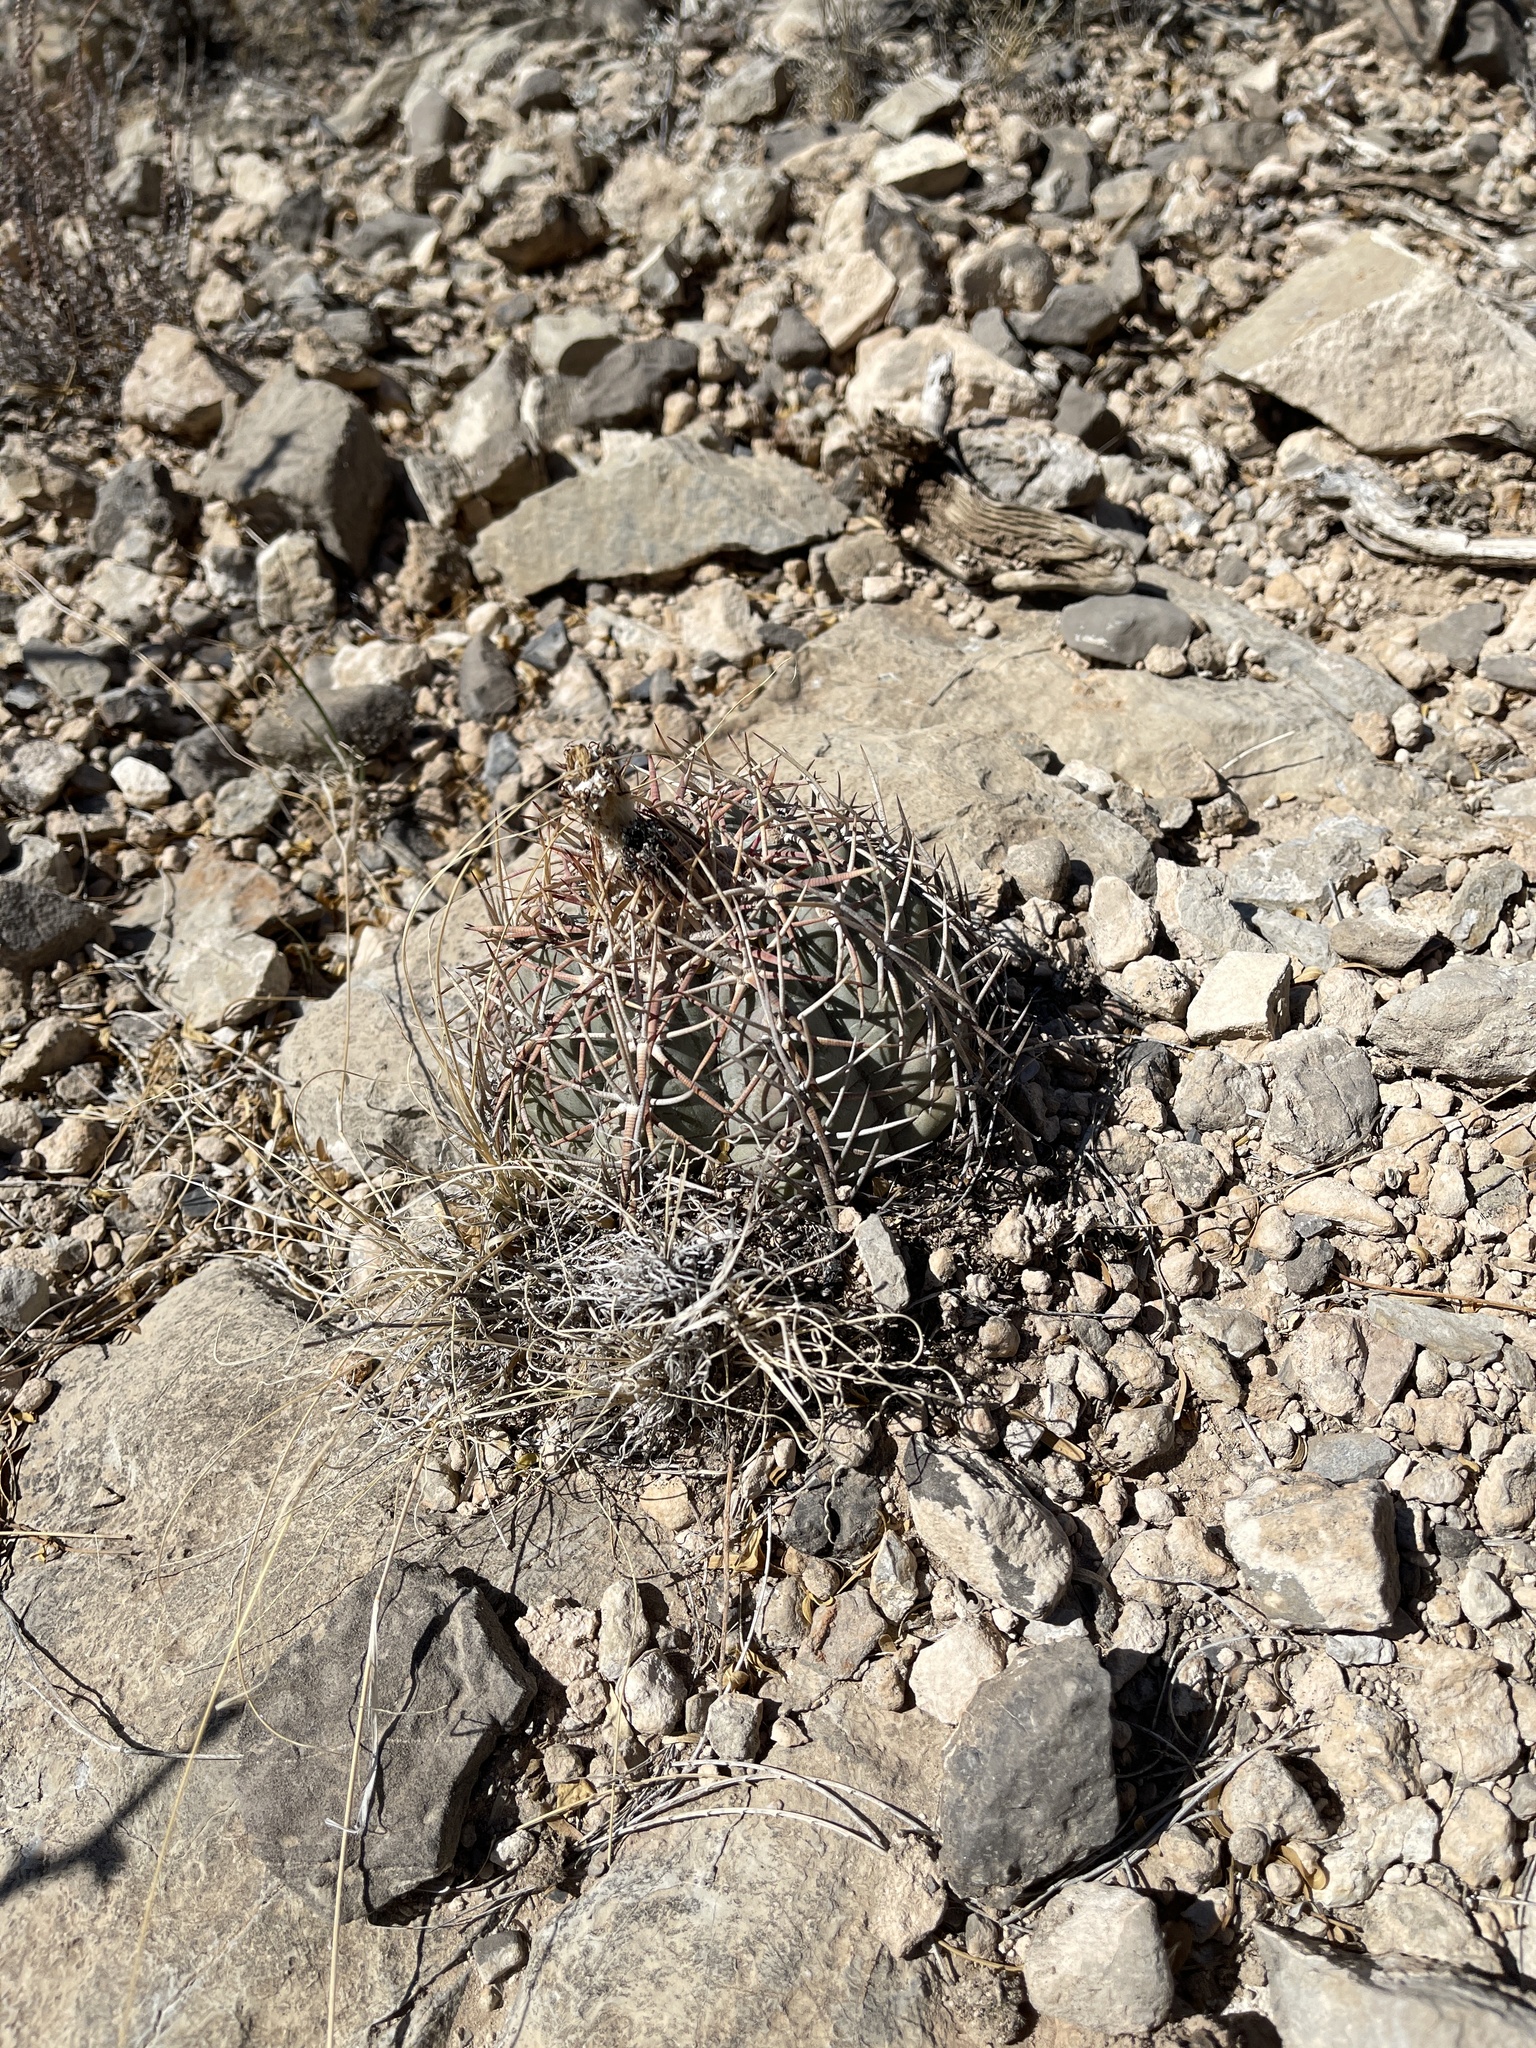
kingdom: Plantae
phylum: Tracheophyta
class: Magnoliopsida
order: Caryophyllales
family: Cactaceae
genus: Echinocactus
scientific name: Echinocactus horizonthalonius
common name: Devilshead
